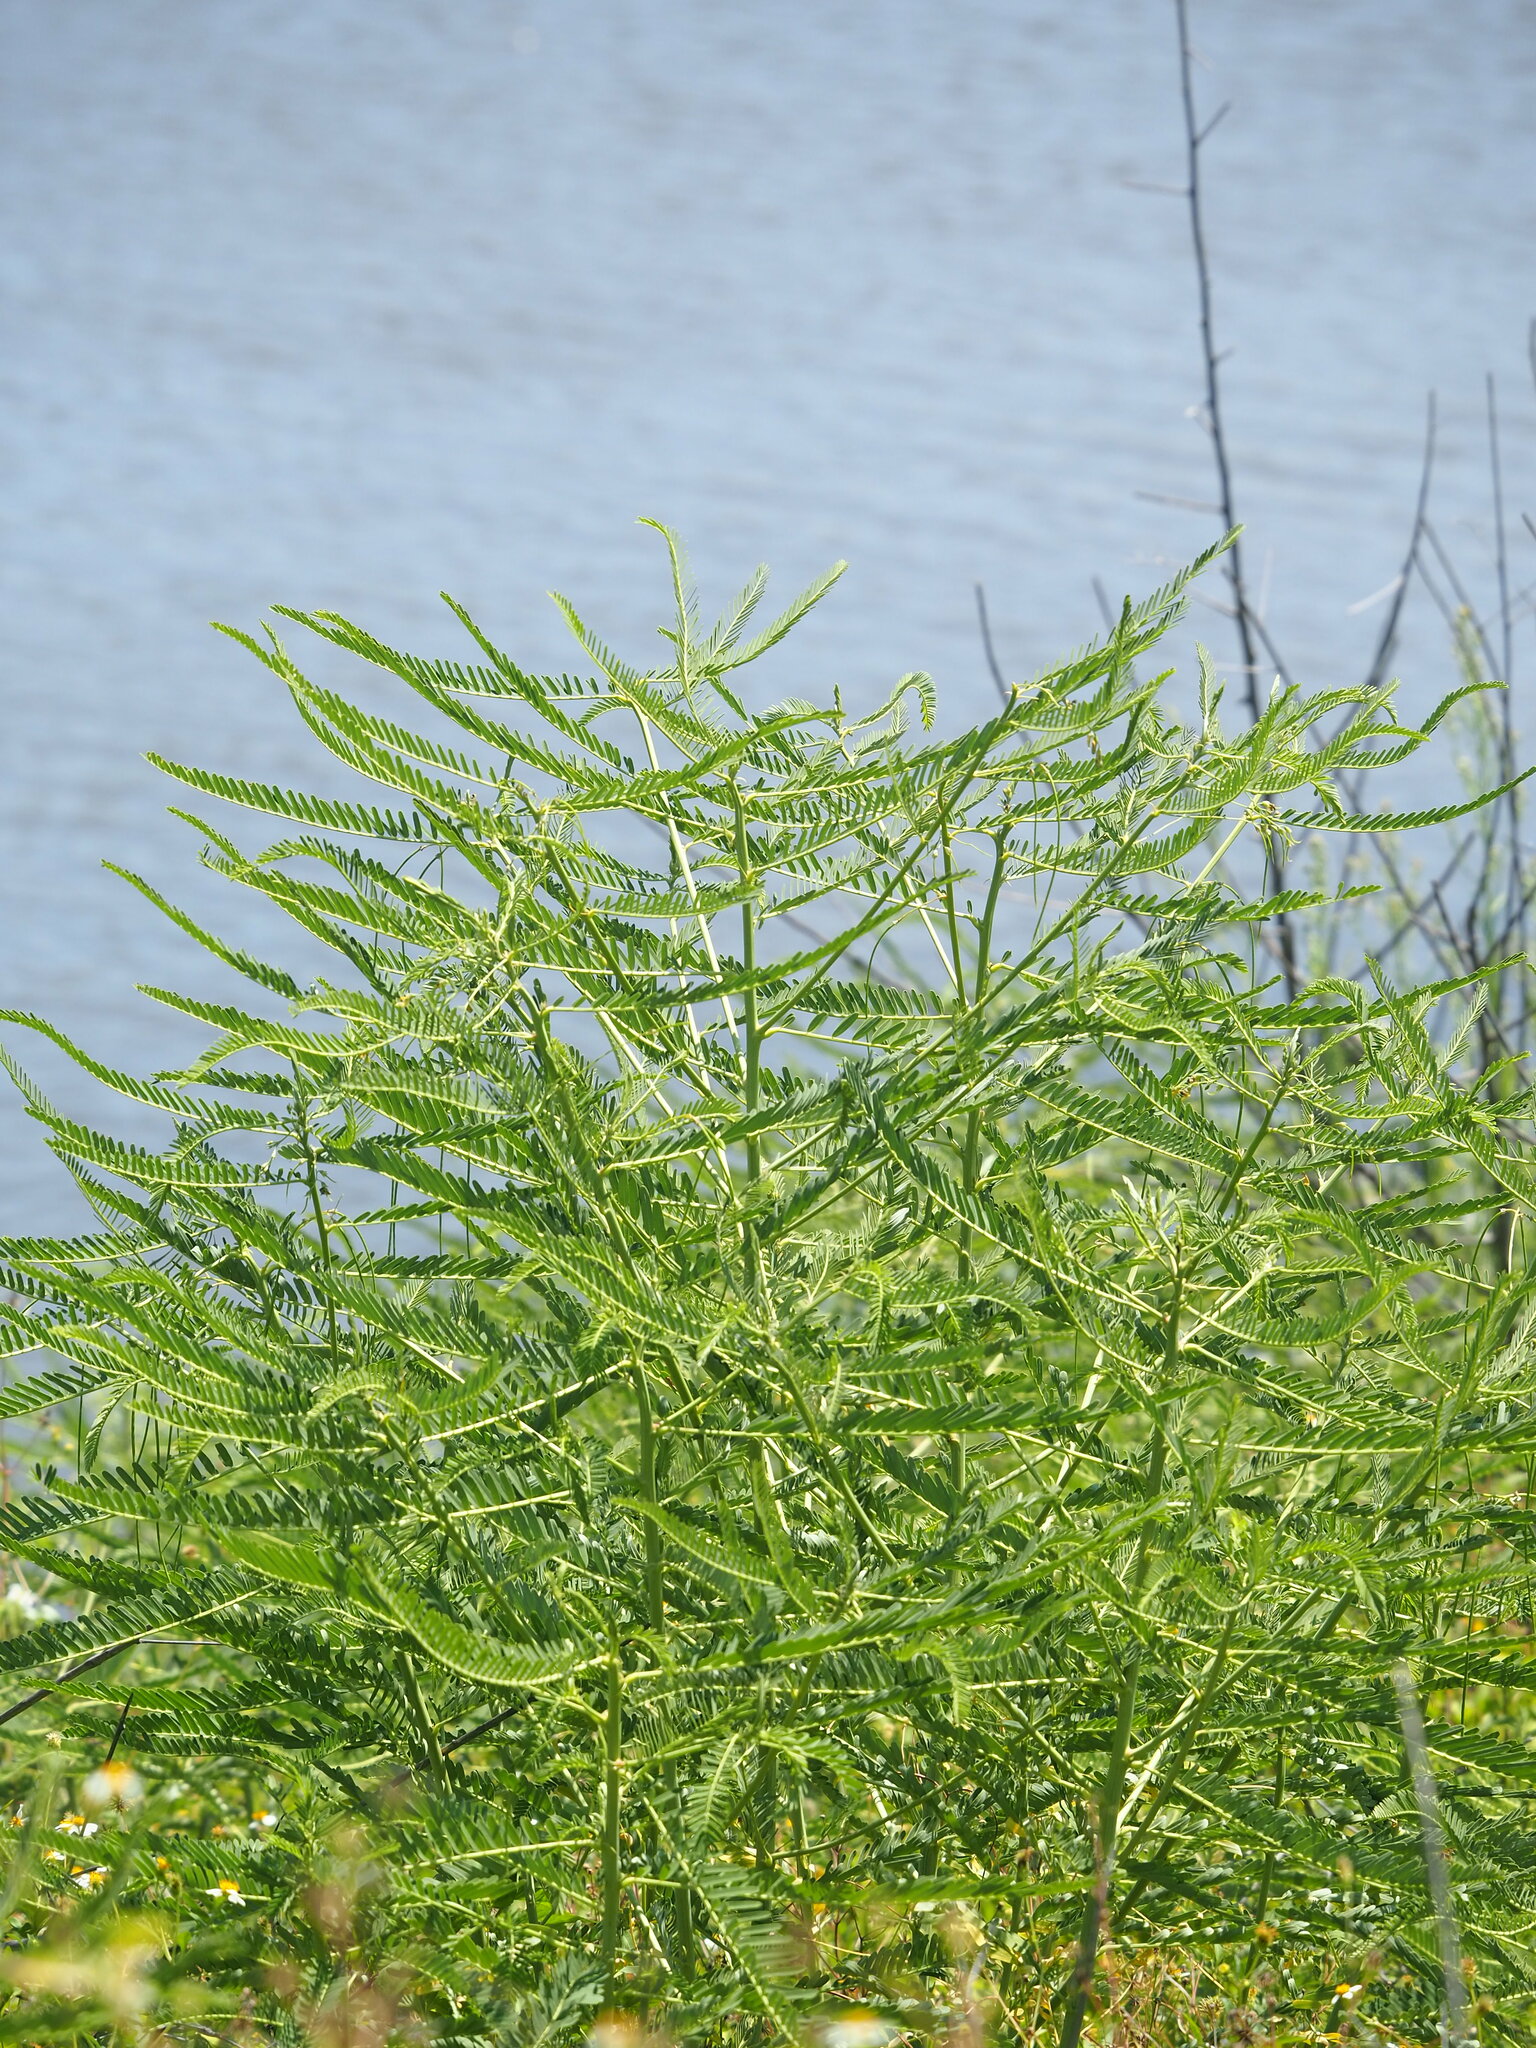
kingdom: Plantae
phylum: Tracheophyta
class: Magnoliopsida
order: Fabales
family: Fabaceae
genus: Sesbania
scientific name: Sesbania cannabina
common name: Canicha
